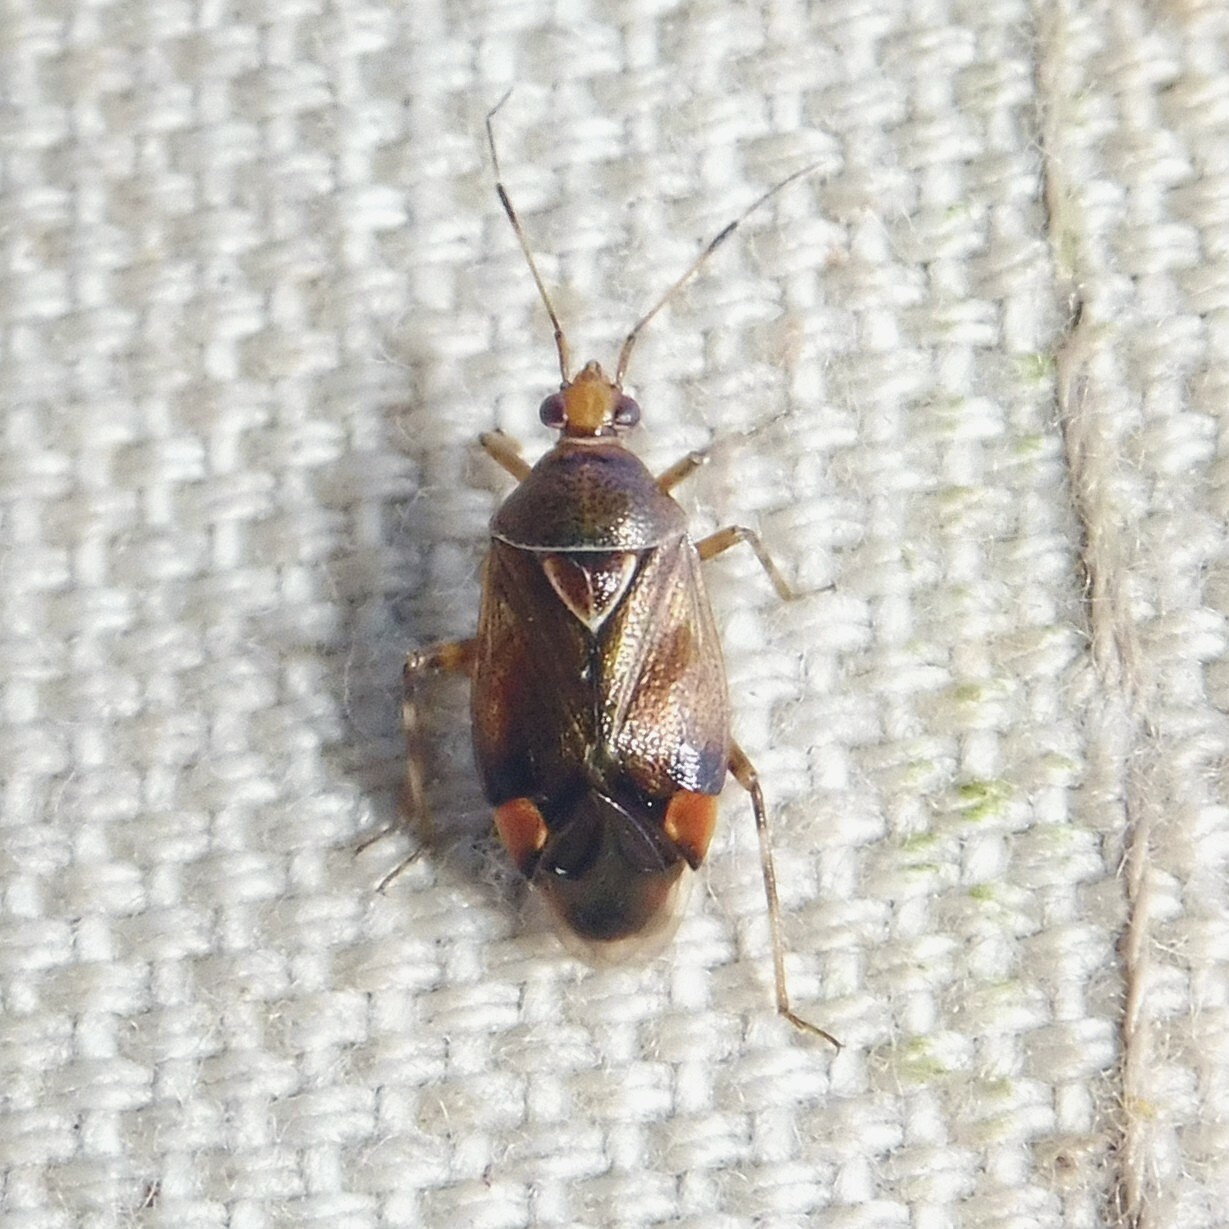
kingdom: Animalia
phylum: Arthropoda
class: Insecta
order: Hemiptera
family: Miridae
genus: Deraeocoris
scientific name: Deraeocoris flavilinea
